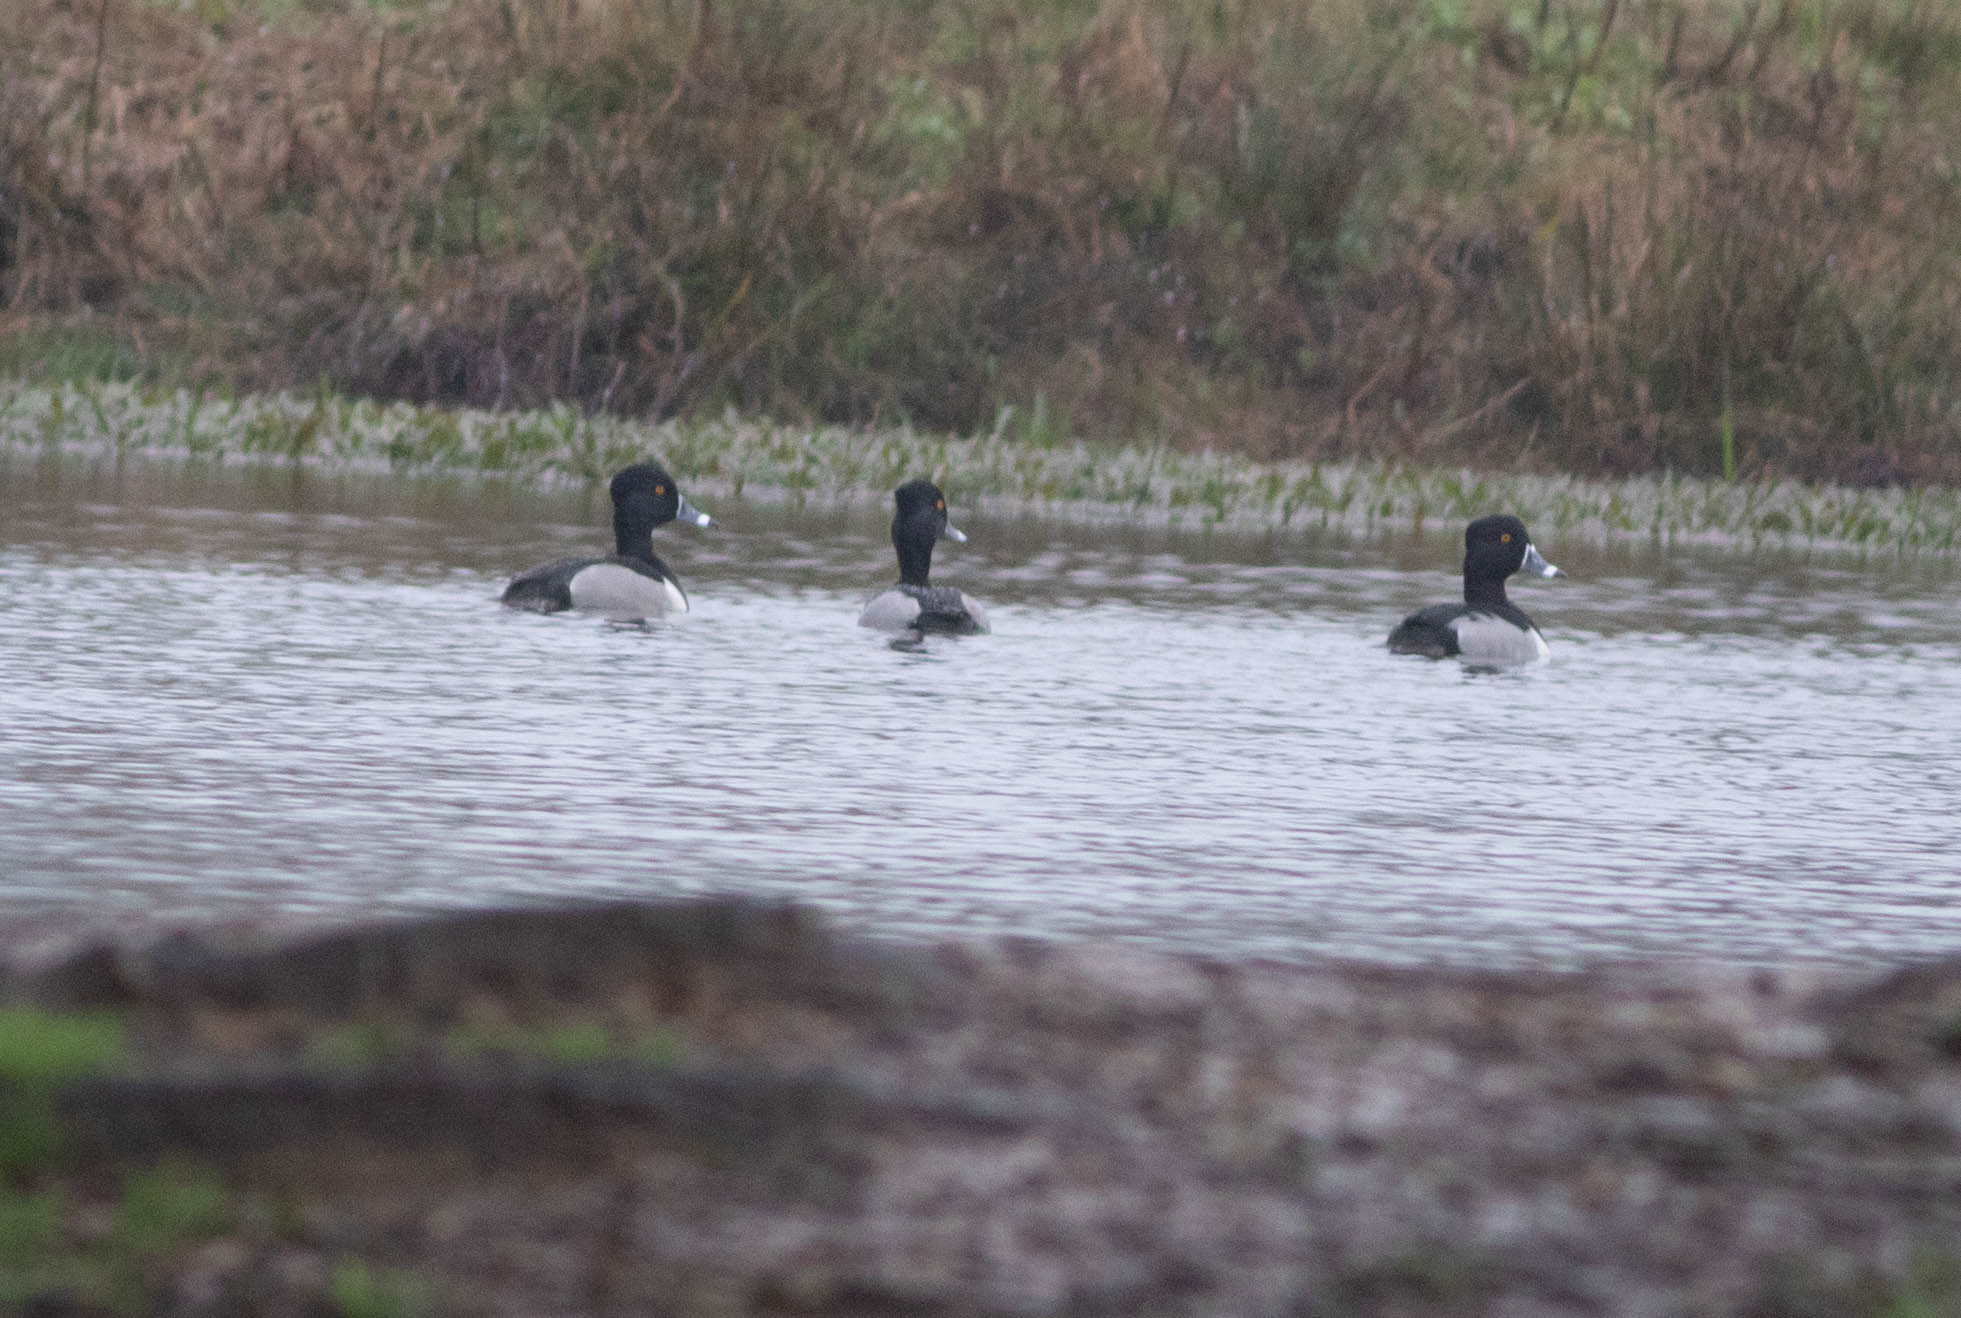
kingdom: Animalia
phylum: Chordata
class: Aves
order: Anseriformes
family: Anatidae
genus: Aythya
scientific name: Aythya collaris
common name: Ring-necked duck
